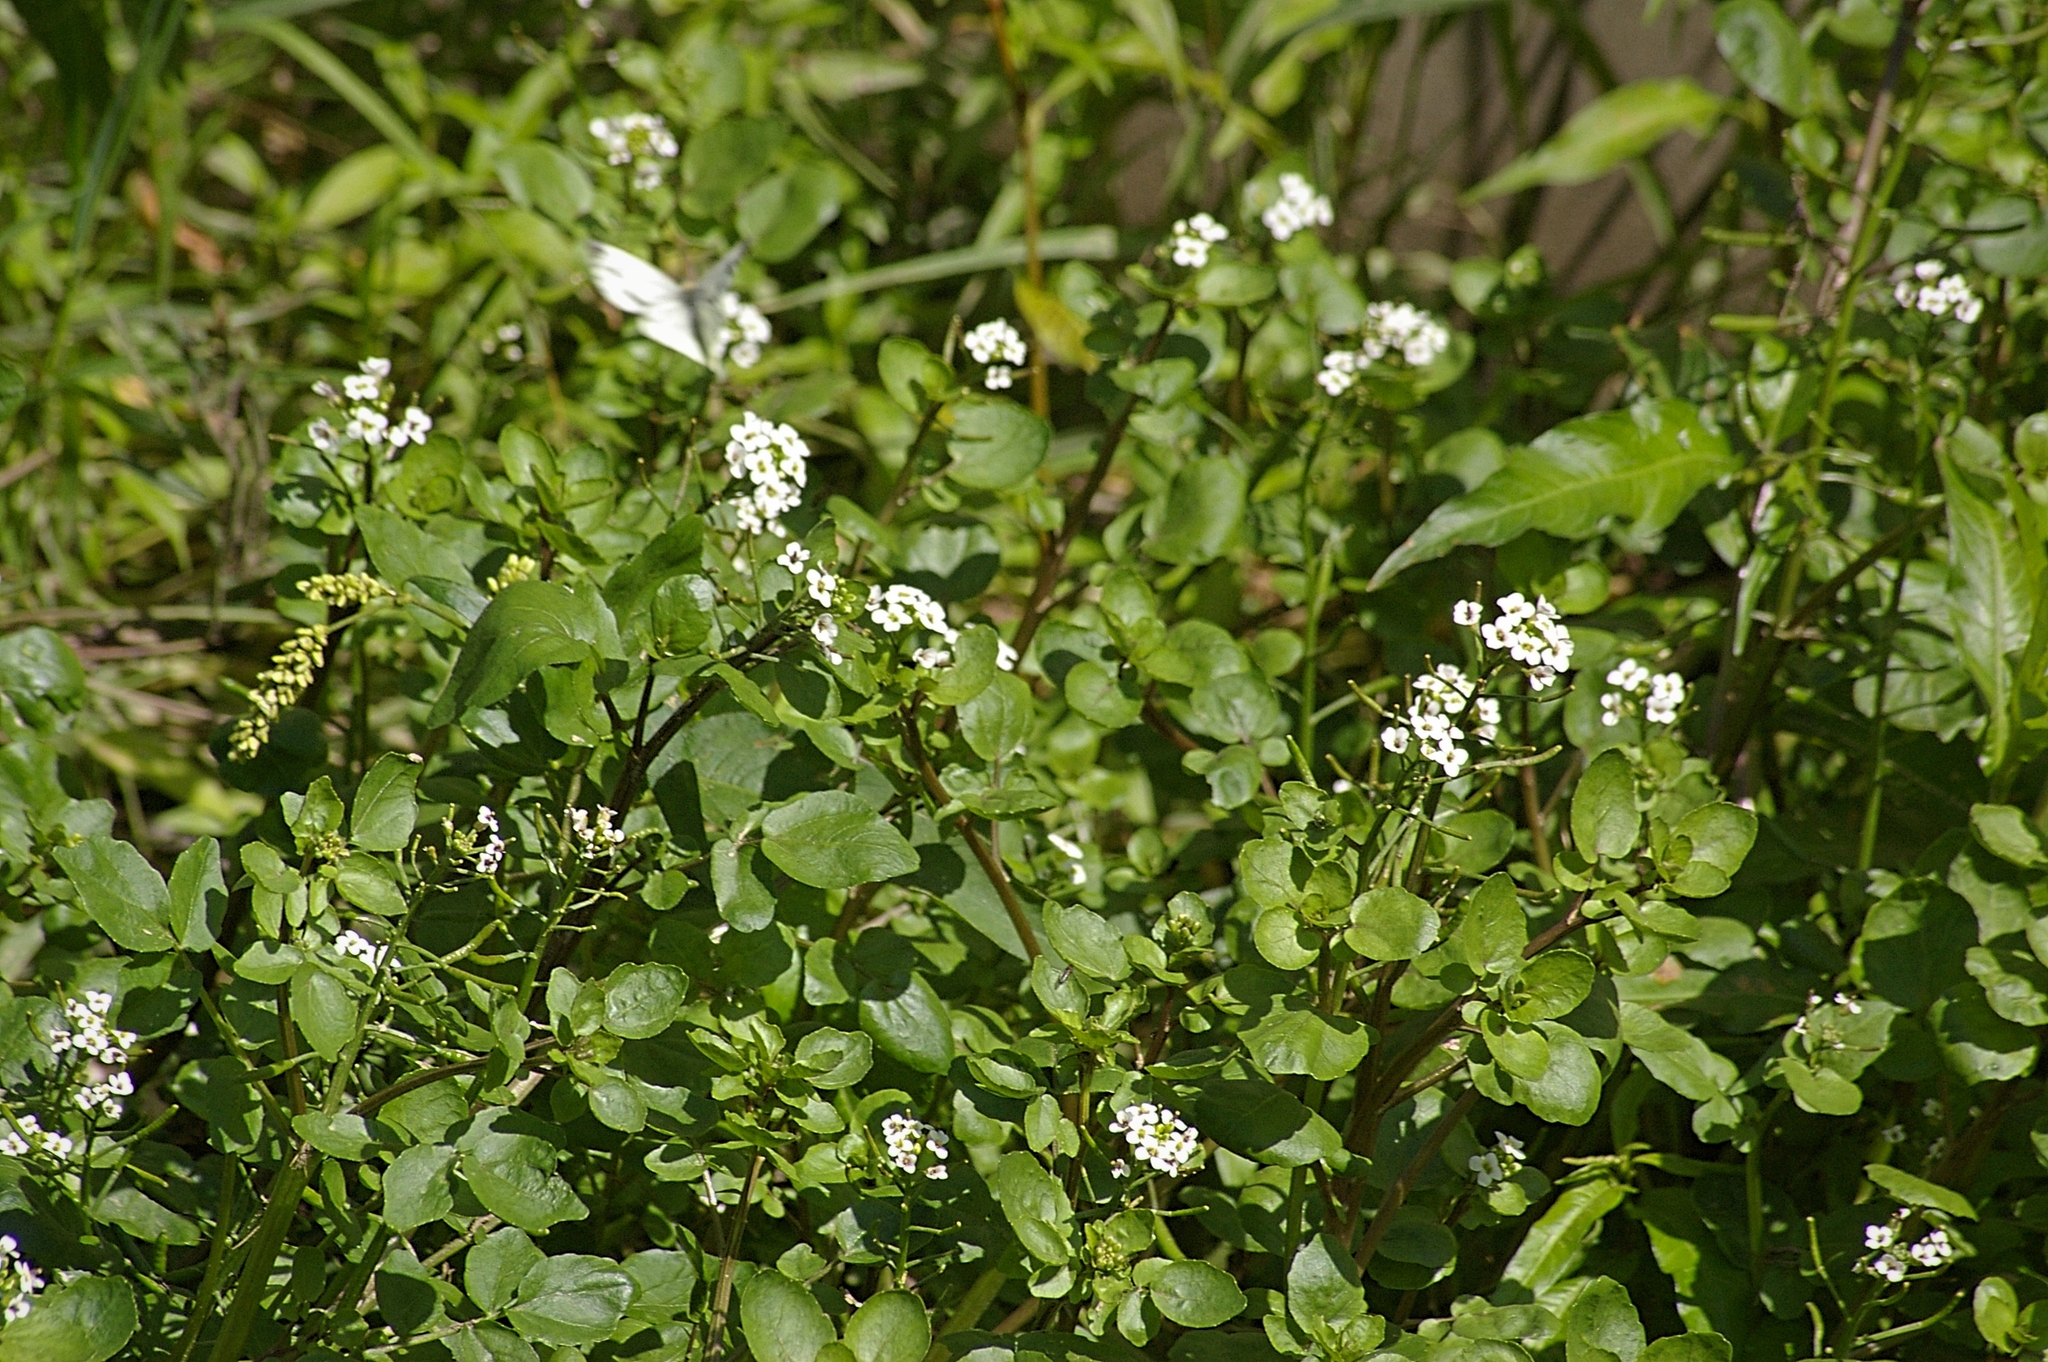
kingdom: Plantae
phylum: Tracheophyta
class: Magnoliopsida
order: Brassicales
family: Brassicaceae
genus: Nasturtium
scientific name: Nasturtium officinale
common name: Watercress
